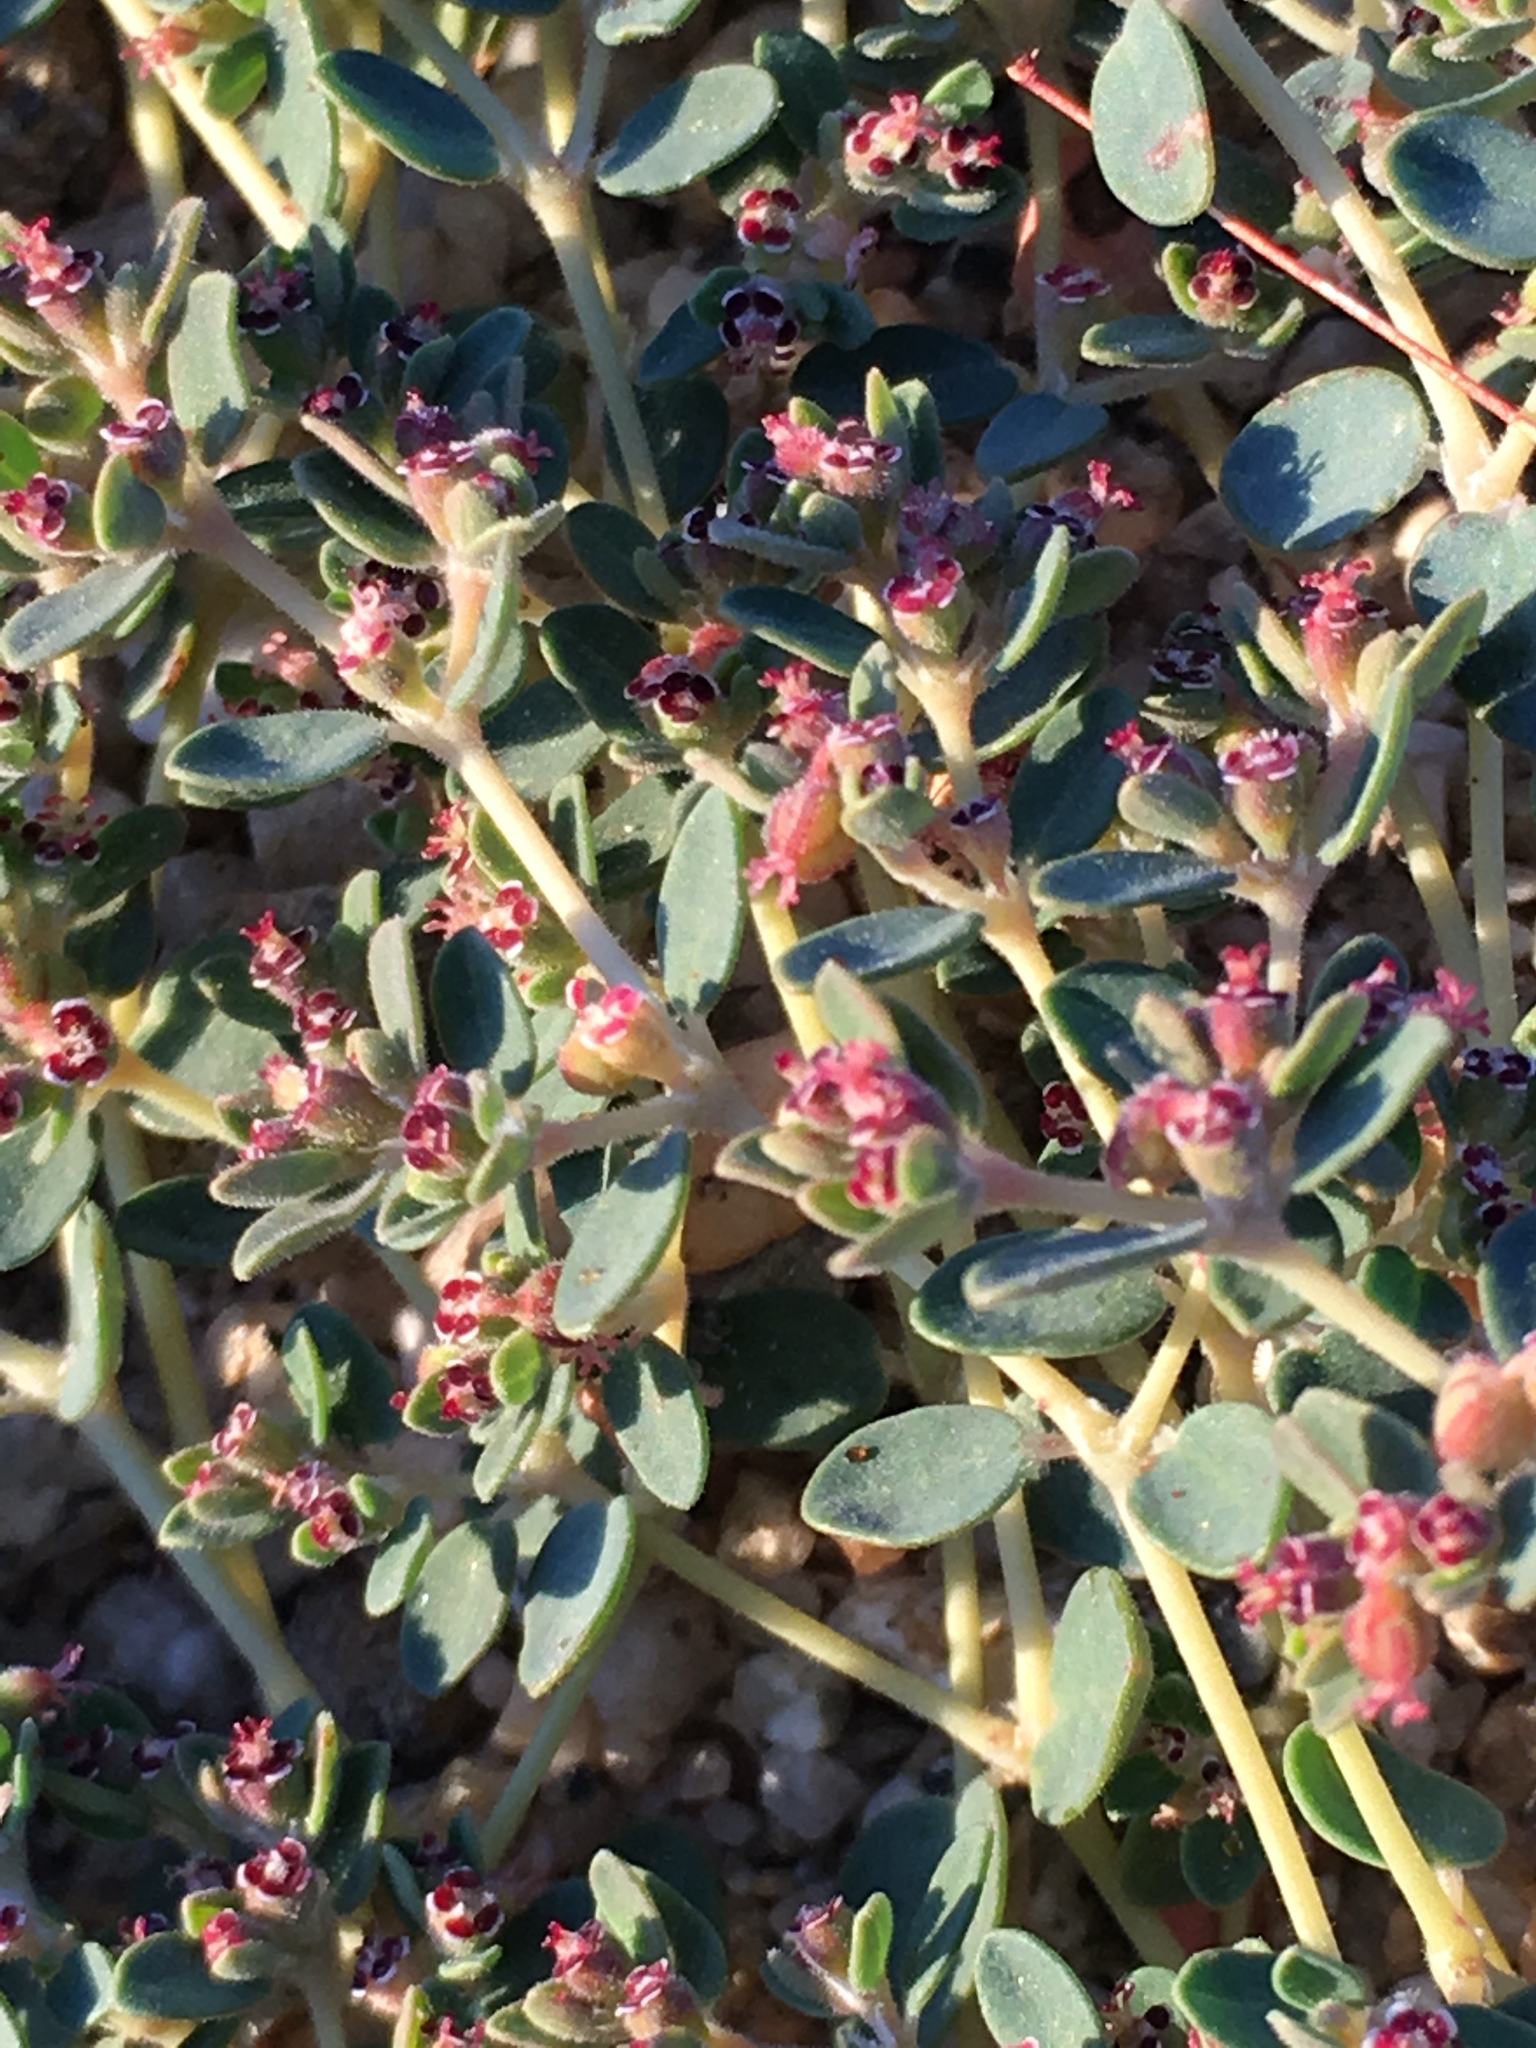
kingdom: Plantae
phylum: Tracheophyta
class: Magnoliopsida
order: Malpighiales
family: Euphorbiaceae
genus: Euphorbia
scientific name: Euphorbia polycarpa
